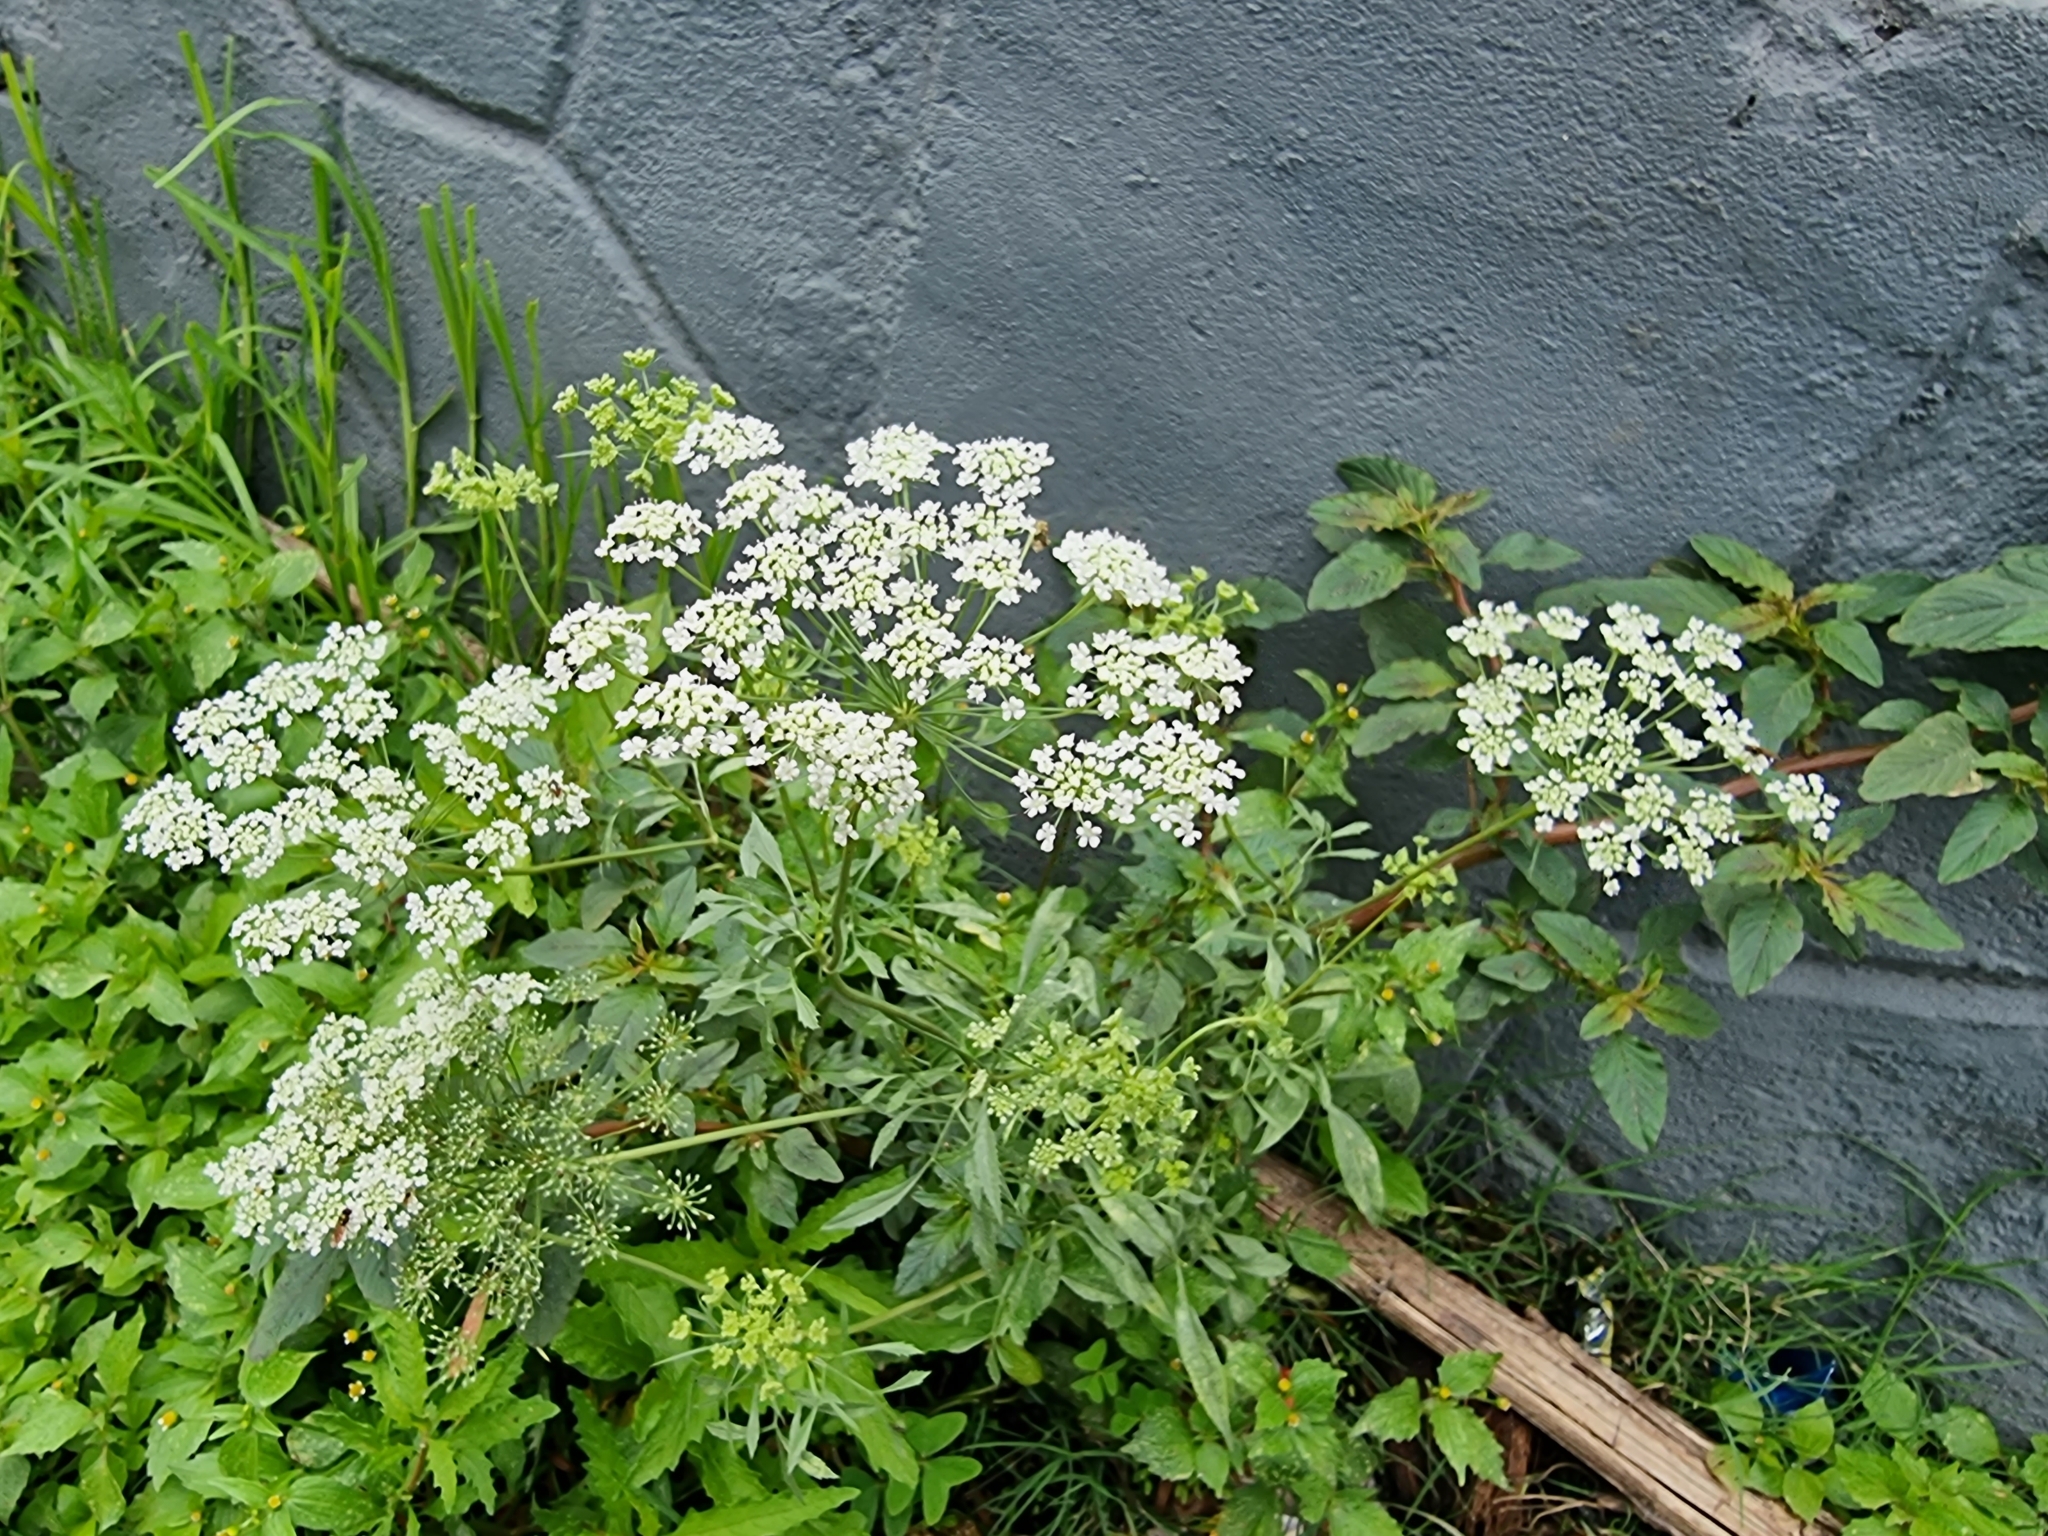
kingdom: Plantae
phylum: Tracheophyta
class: Magnoliopsida
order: Apiales
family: Apiaceae
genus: Ammi
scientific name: Ammi majus
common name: Bullwort
